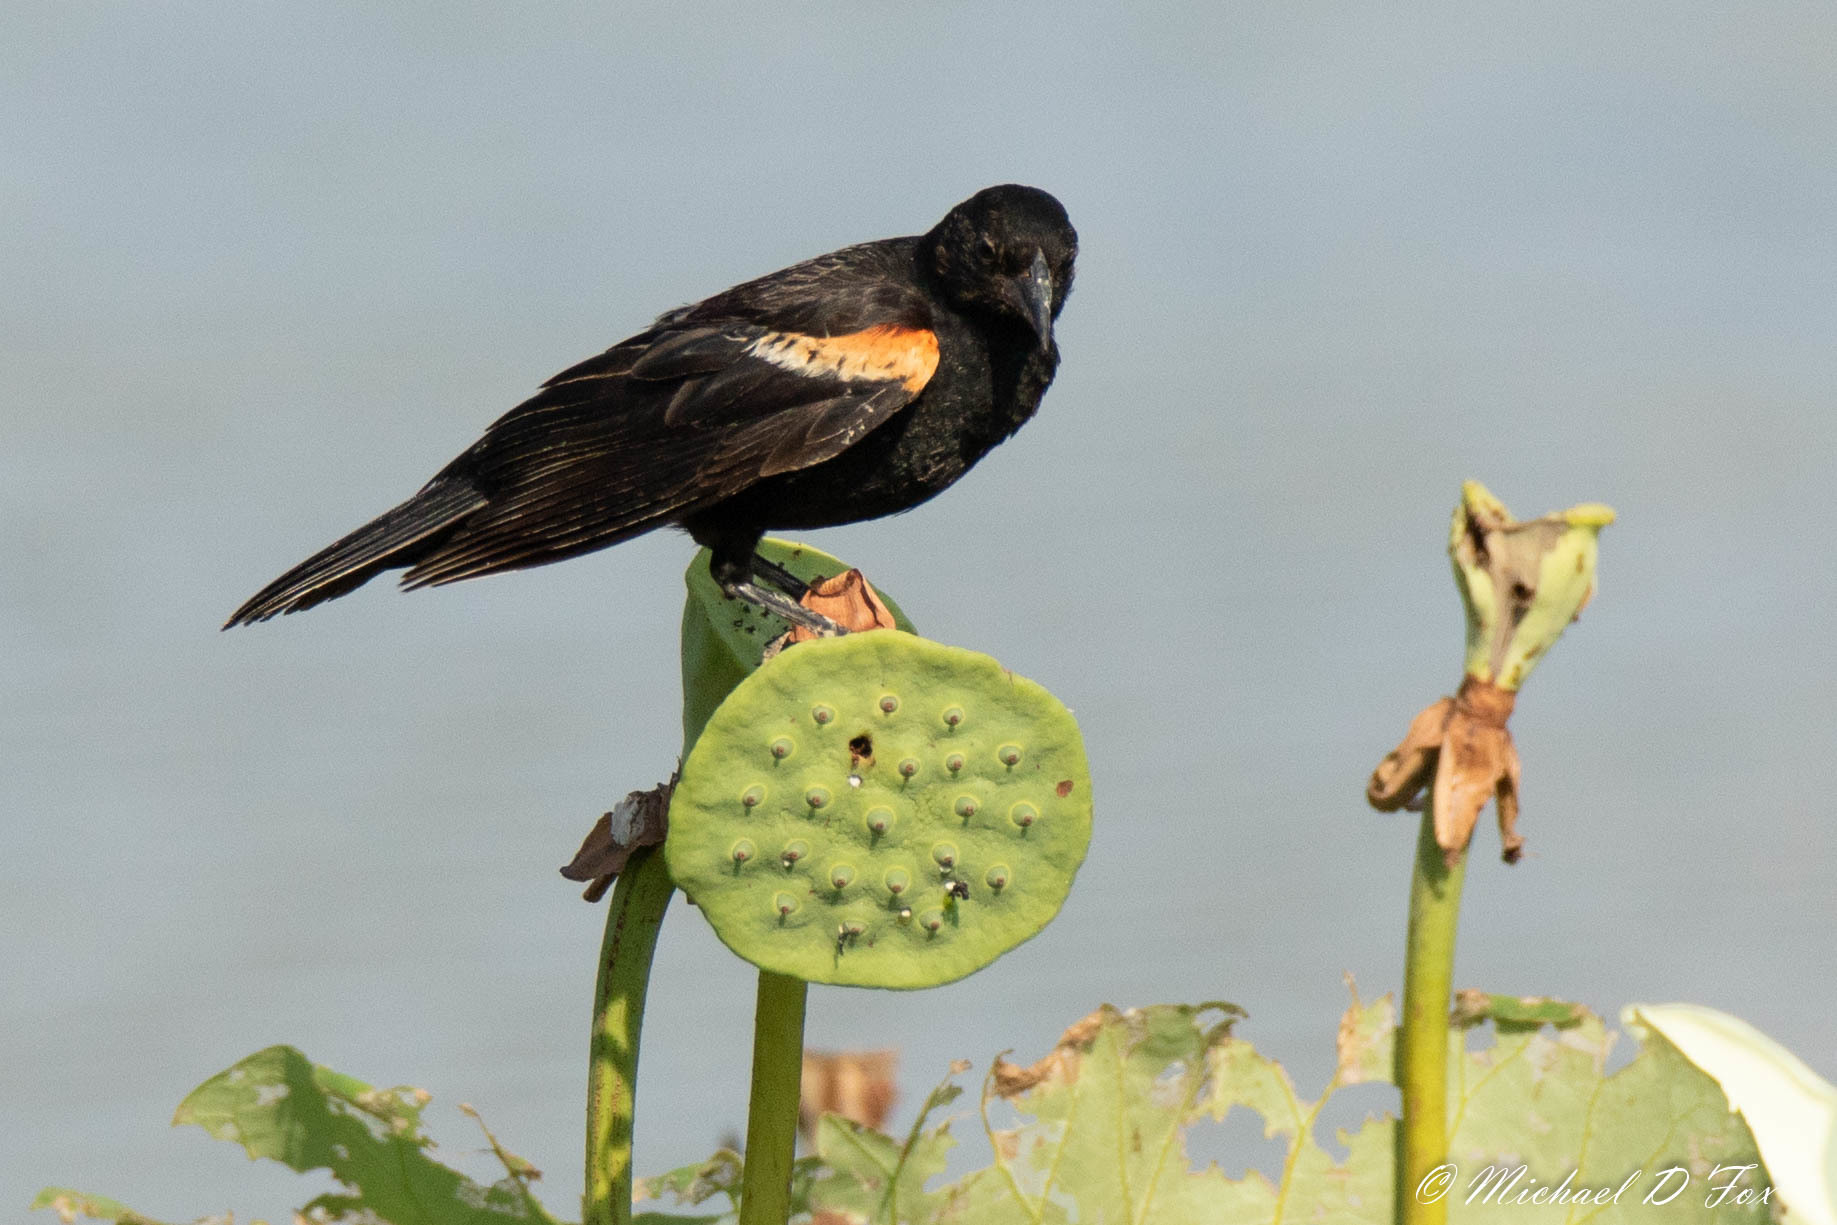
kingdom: Animalia
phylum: Chordata
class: Aves
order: Passeriformes
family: Icteridae
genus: Agelaius
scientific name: Agelaius phoeniceus
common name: Red-winged blackbird
